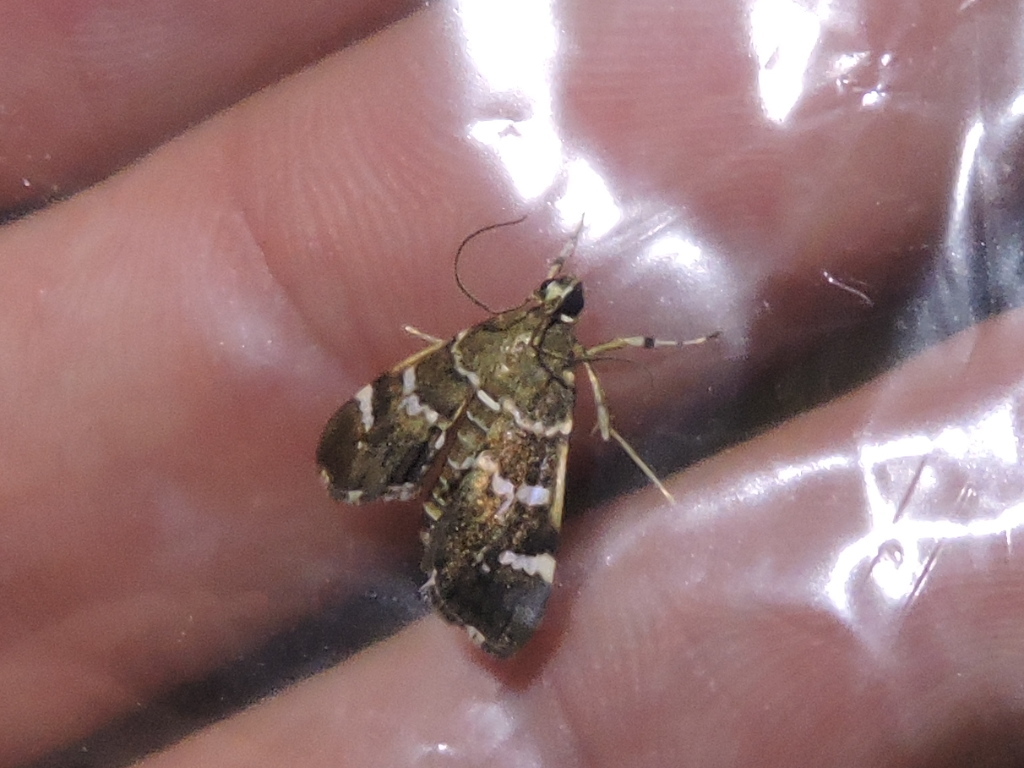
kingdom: Animalia
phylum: Arthropoda
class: Insecta
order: Lepidoptera
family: Crambidae
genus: Hymenia
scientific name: Hymenia perspectalis
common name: Spotted beet webworm
